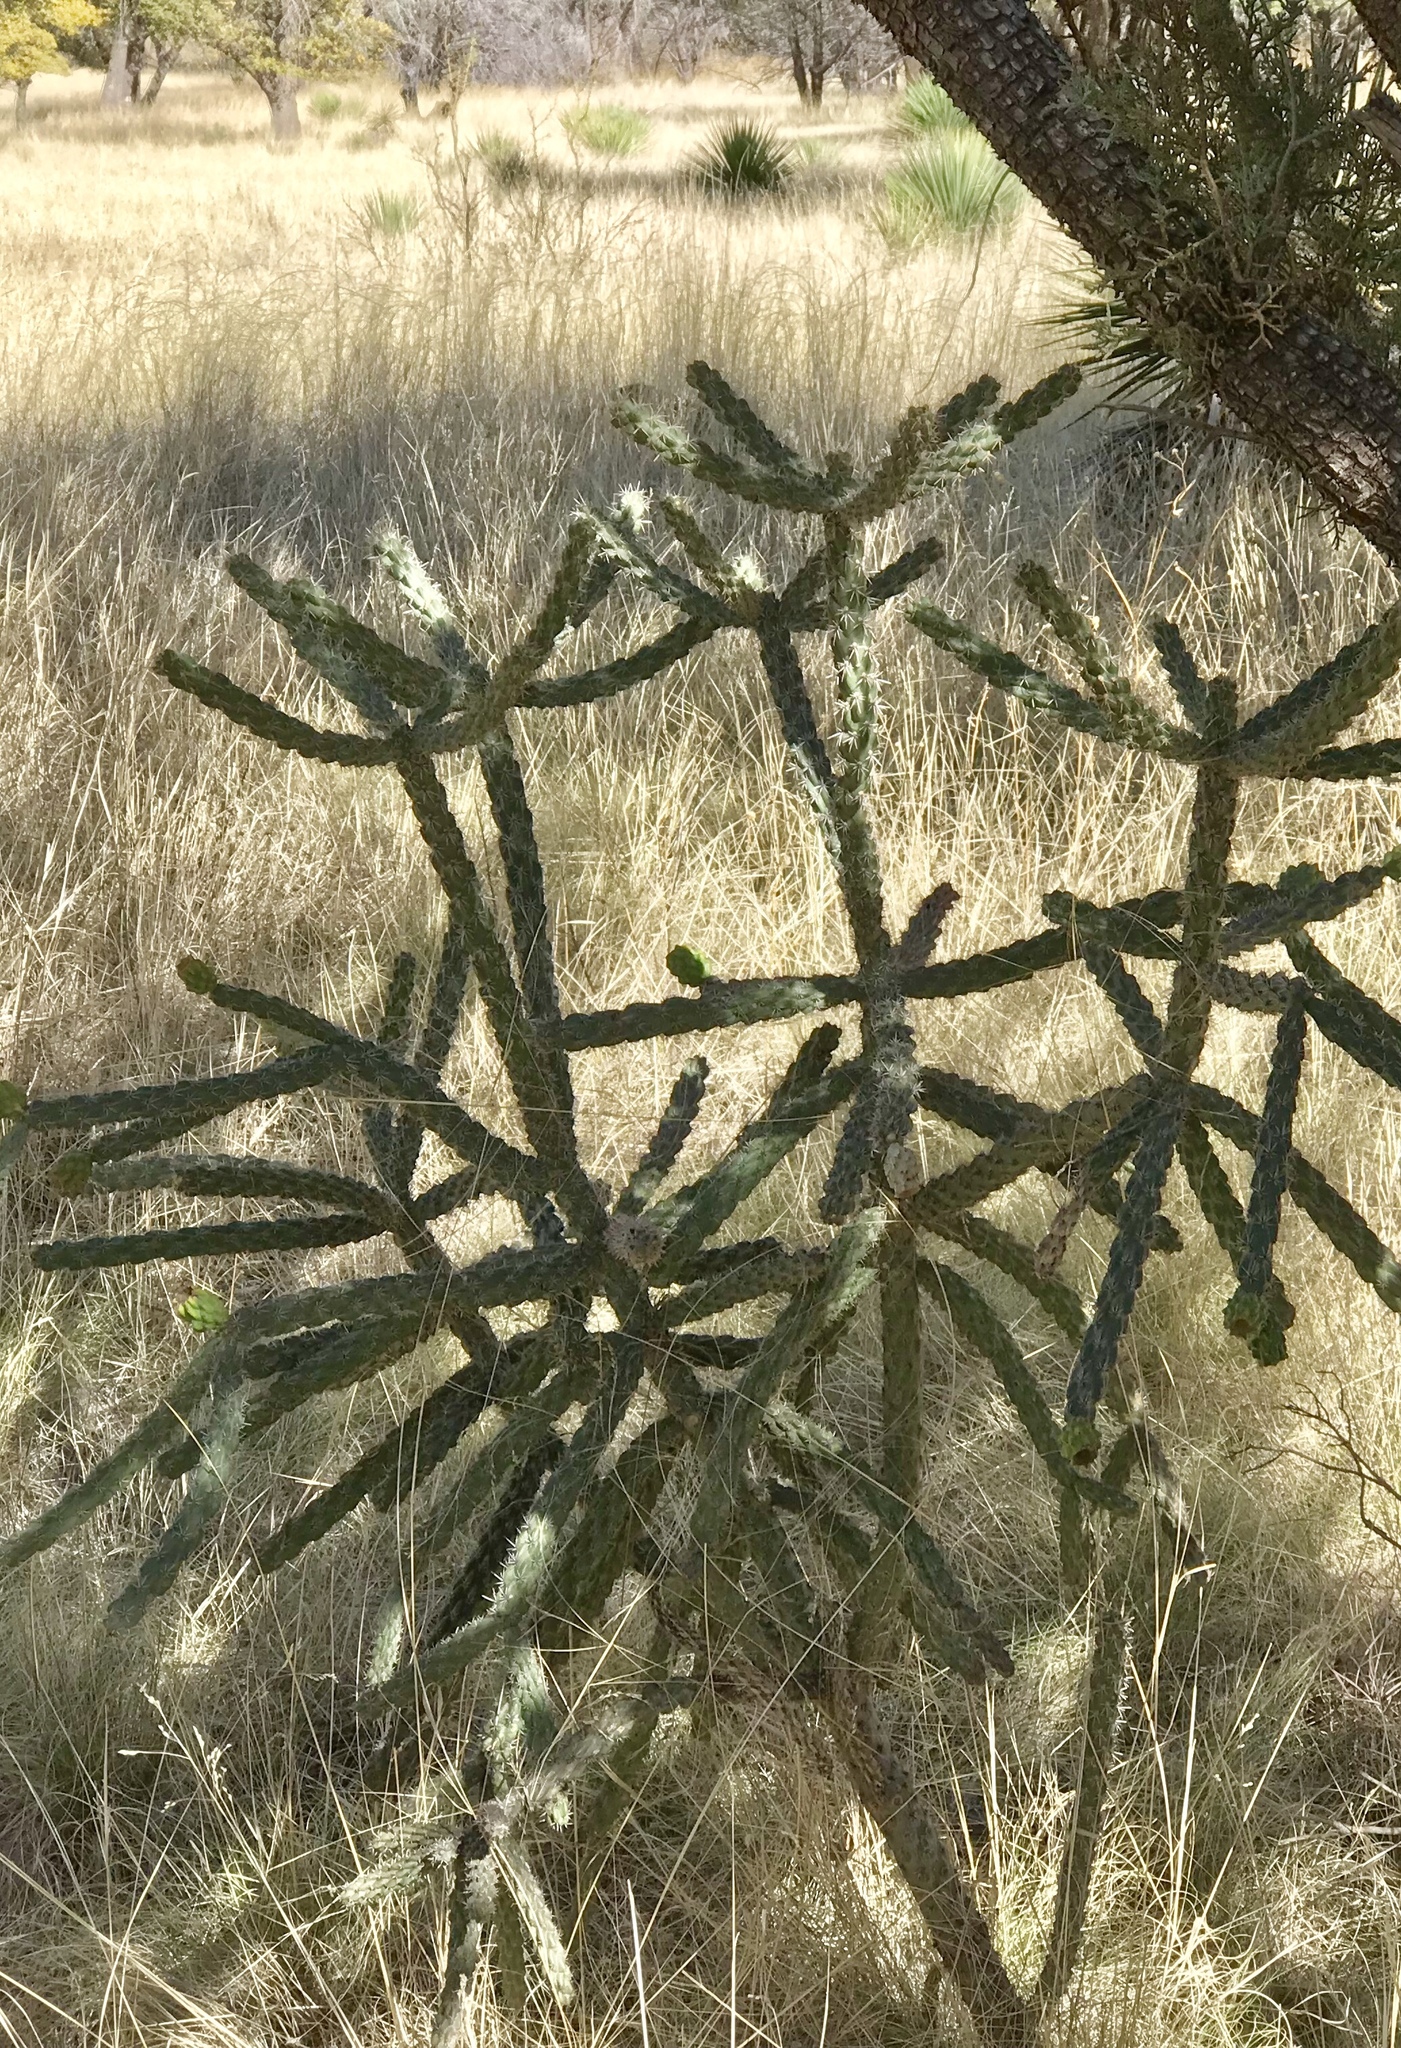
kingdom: Plantae
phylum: Tracheophyta
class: Magnoliopsida
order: Caryophyllales
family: Cactaceae
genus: Cylindropuntia
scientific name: Cylindropuntia imbricata
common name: Candelabrum cactus
